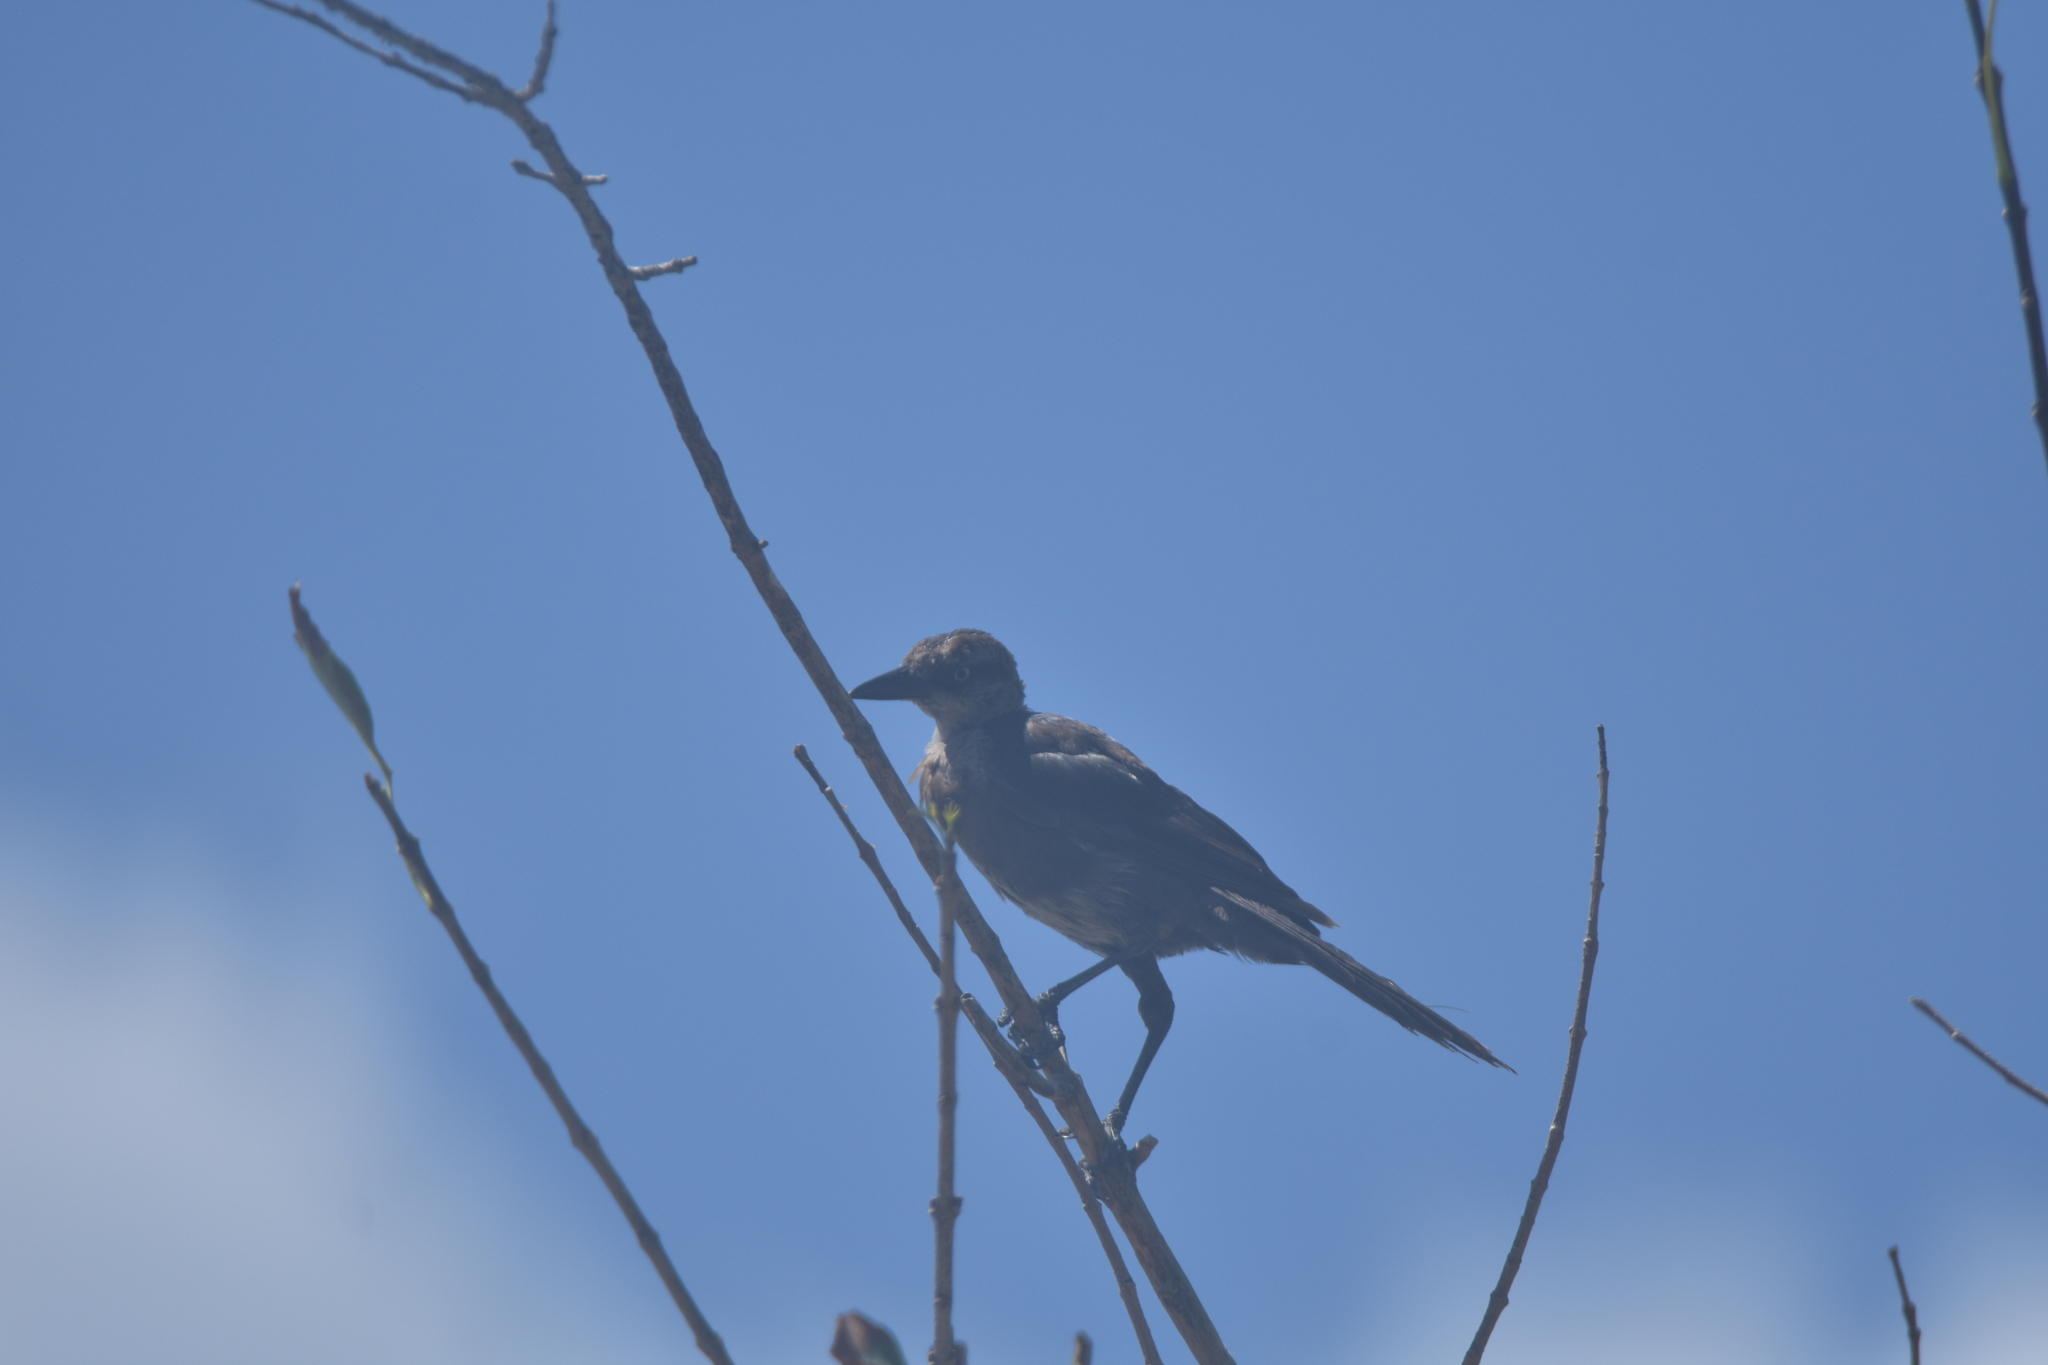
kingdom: Animalia
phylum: Chordata
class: Aves
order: Passeriformes
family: Icteridae
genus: Quiscalus
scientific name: Quiscalus mexicanus
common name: Great-tailed grackle
